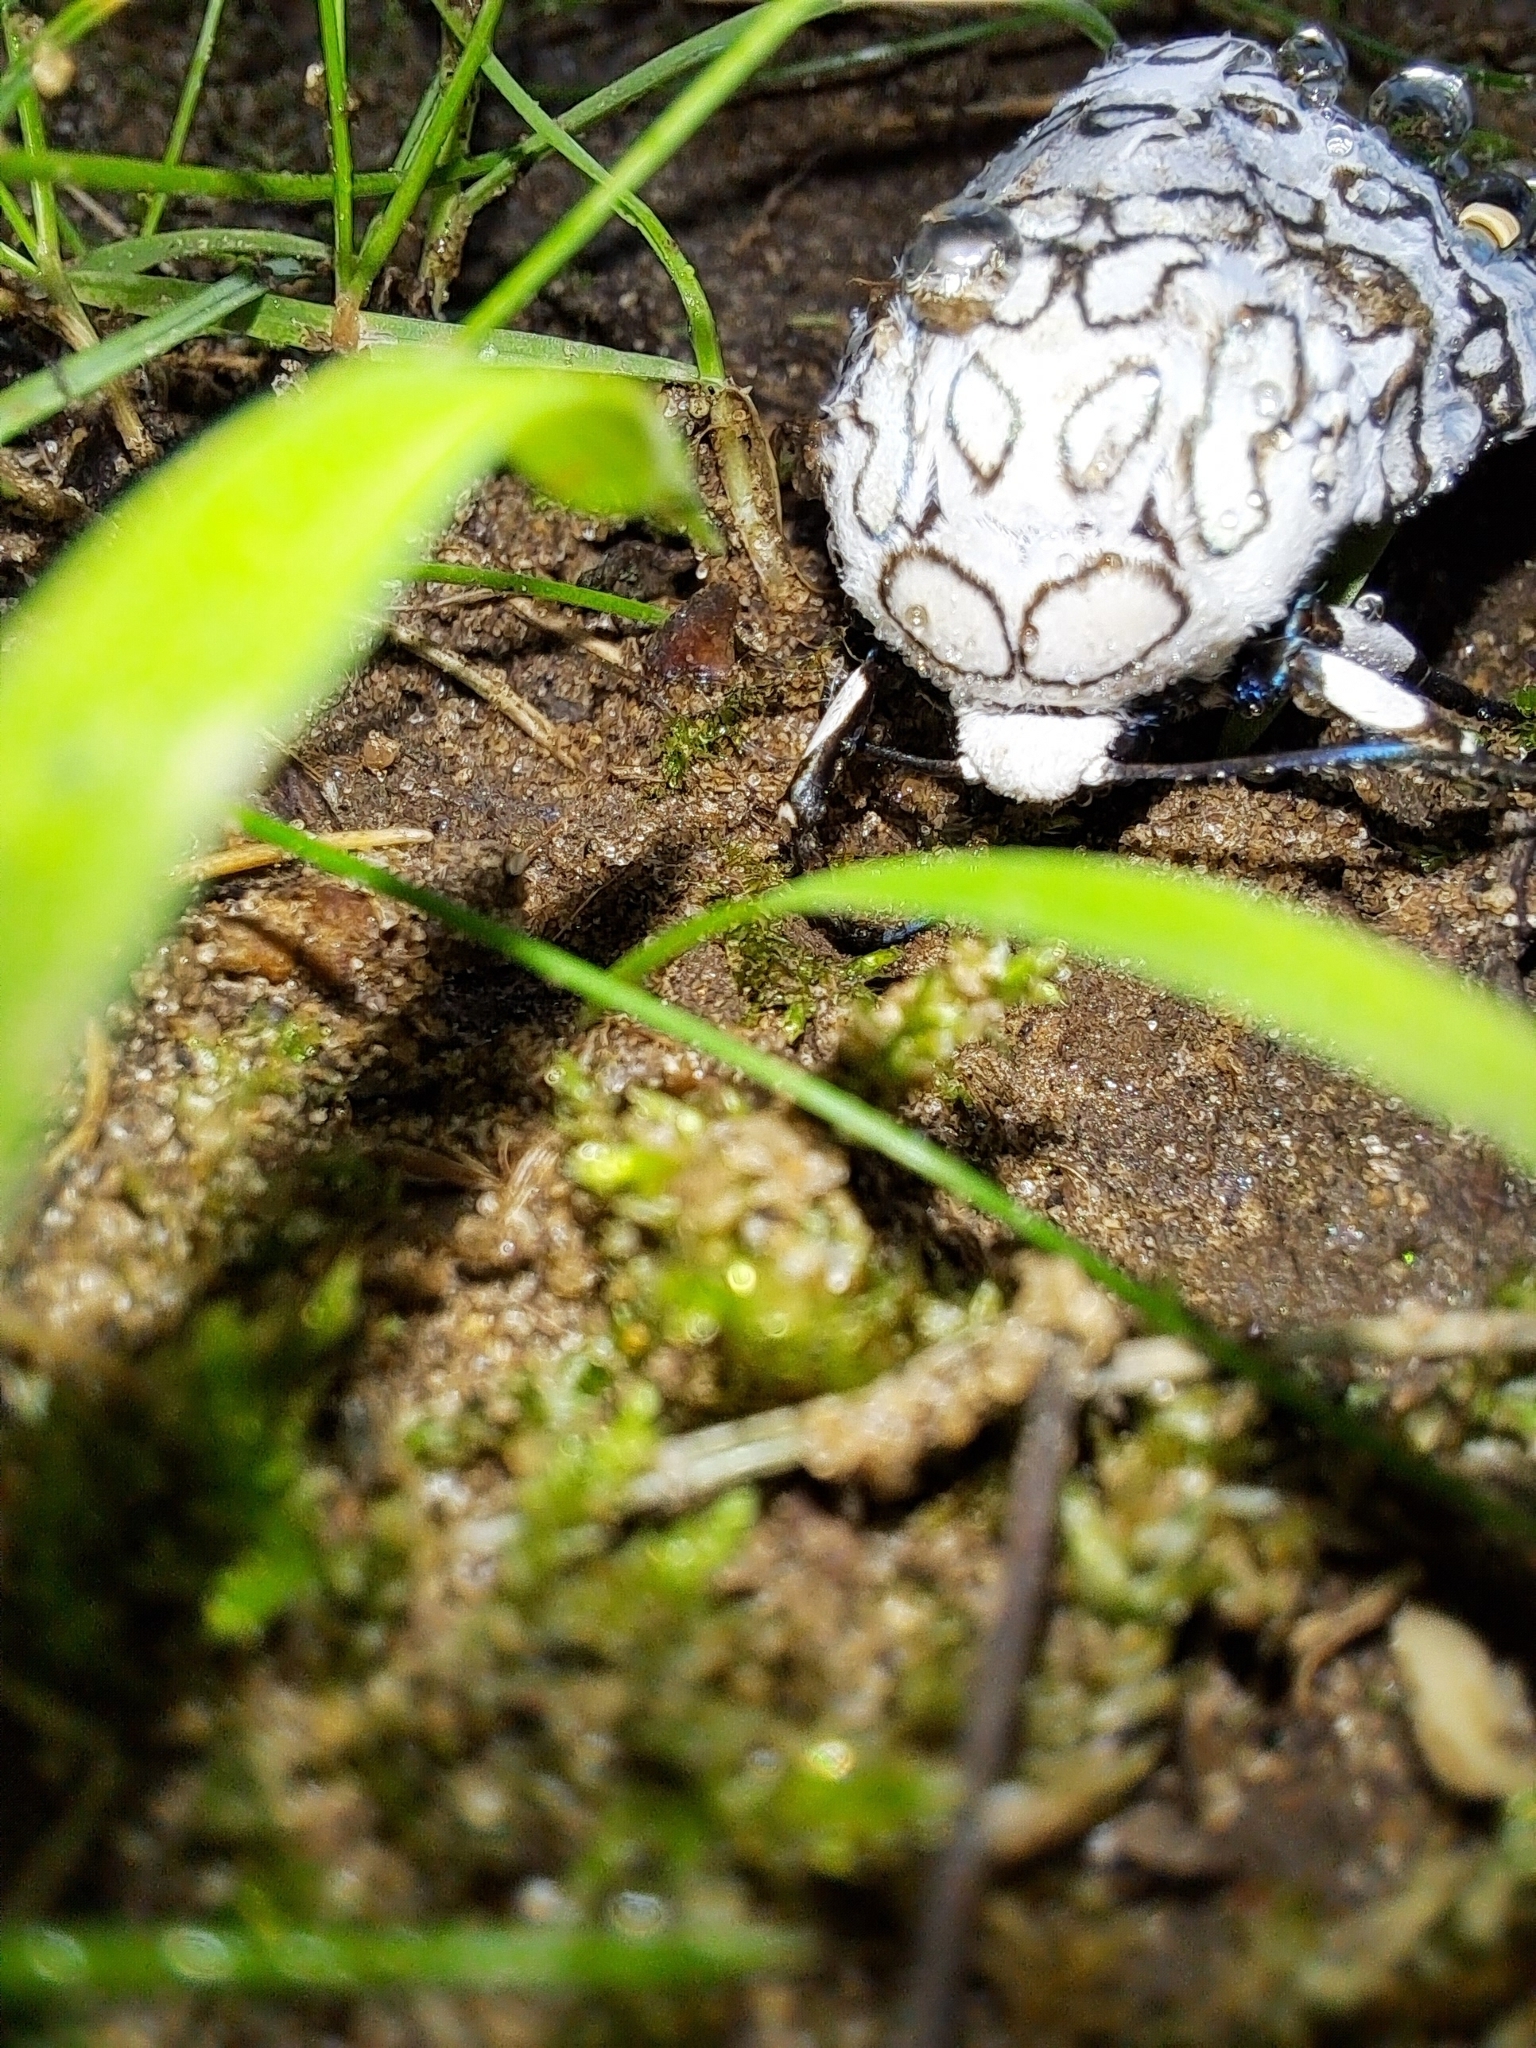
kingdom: Animalia
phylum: Arthropoda
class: Insecta
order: Lepidoptera
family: Erebidae
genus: Hypercompe
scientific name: Hypercompe scribonia
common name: Giant leopard moth
